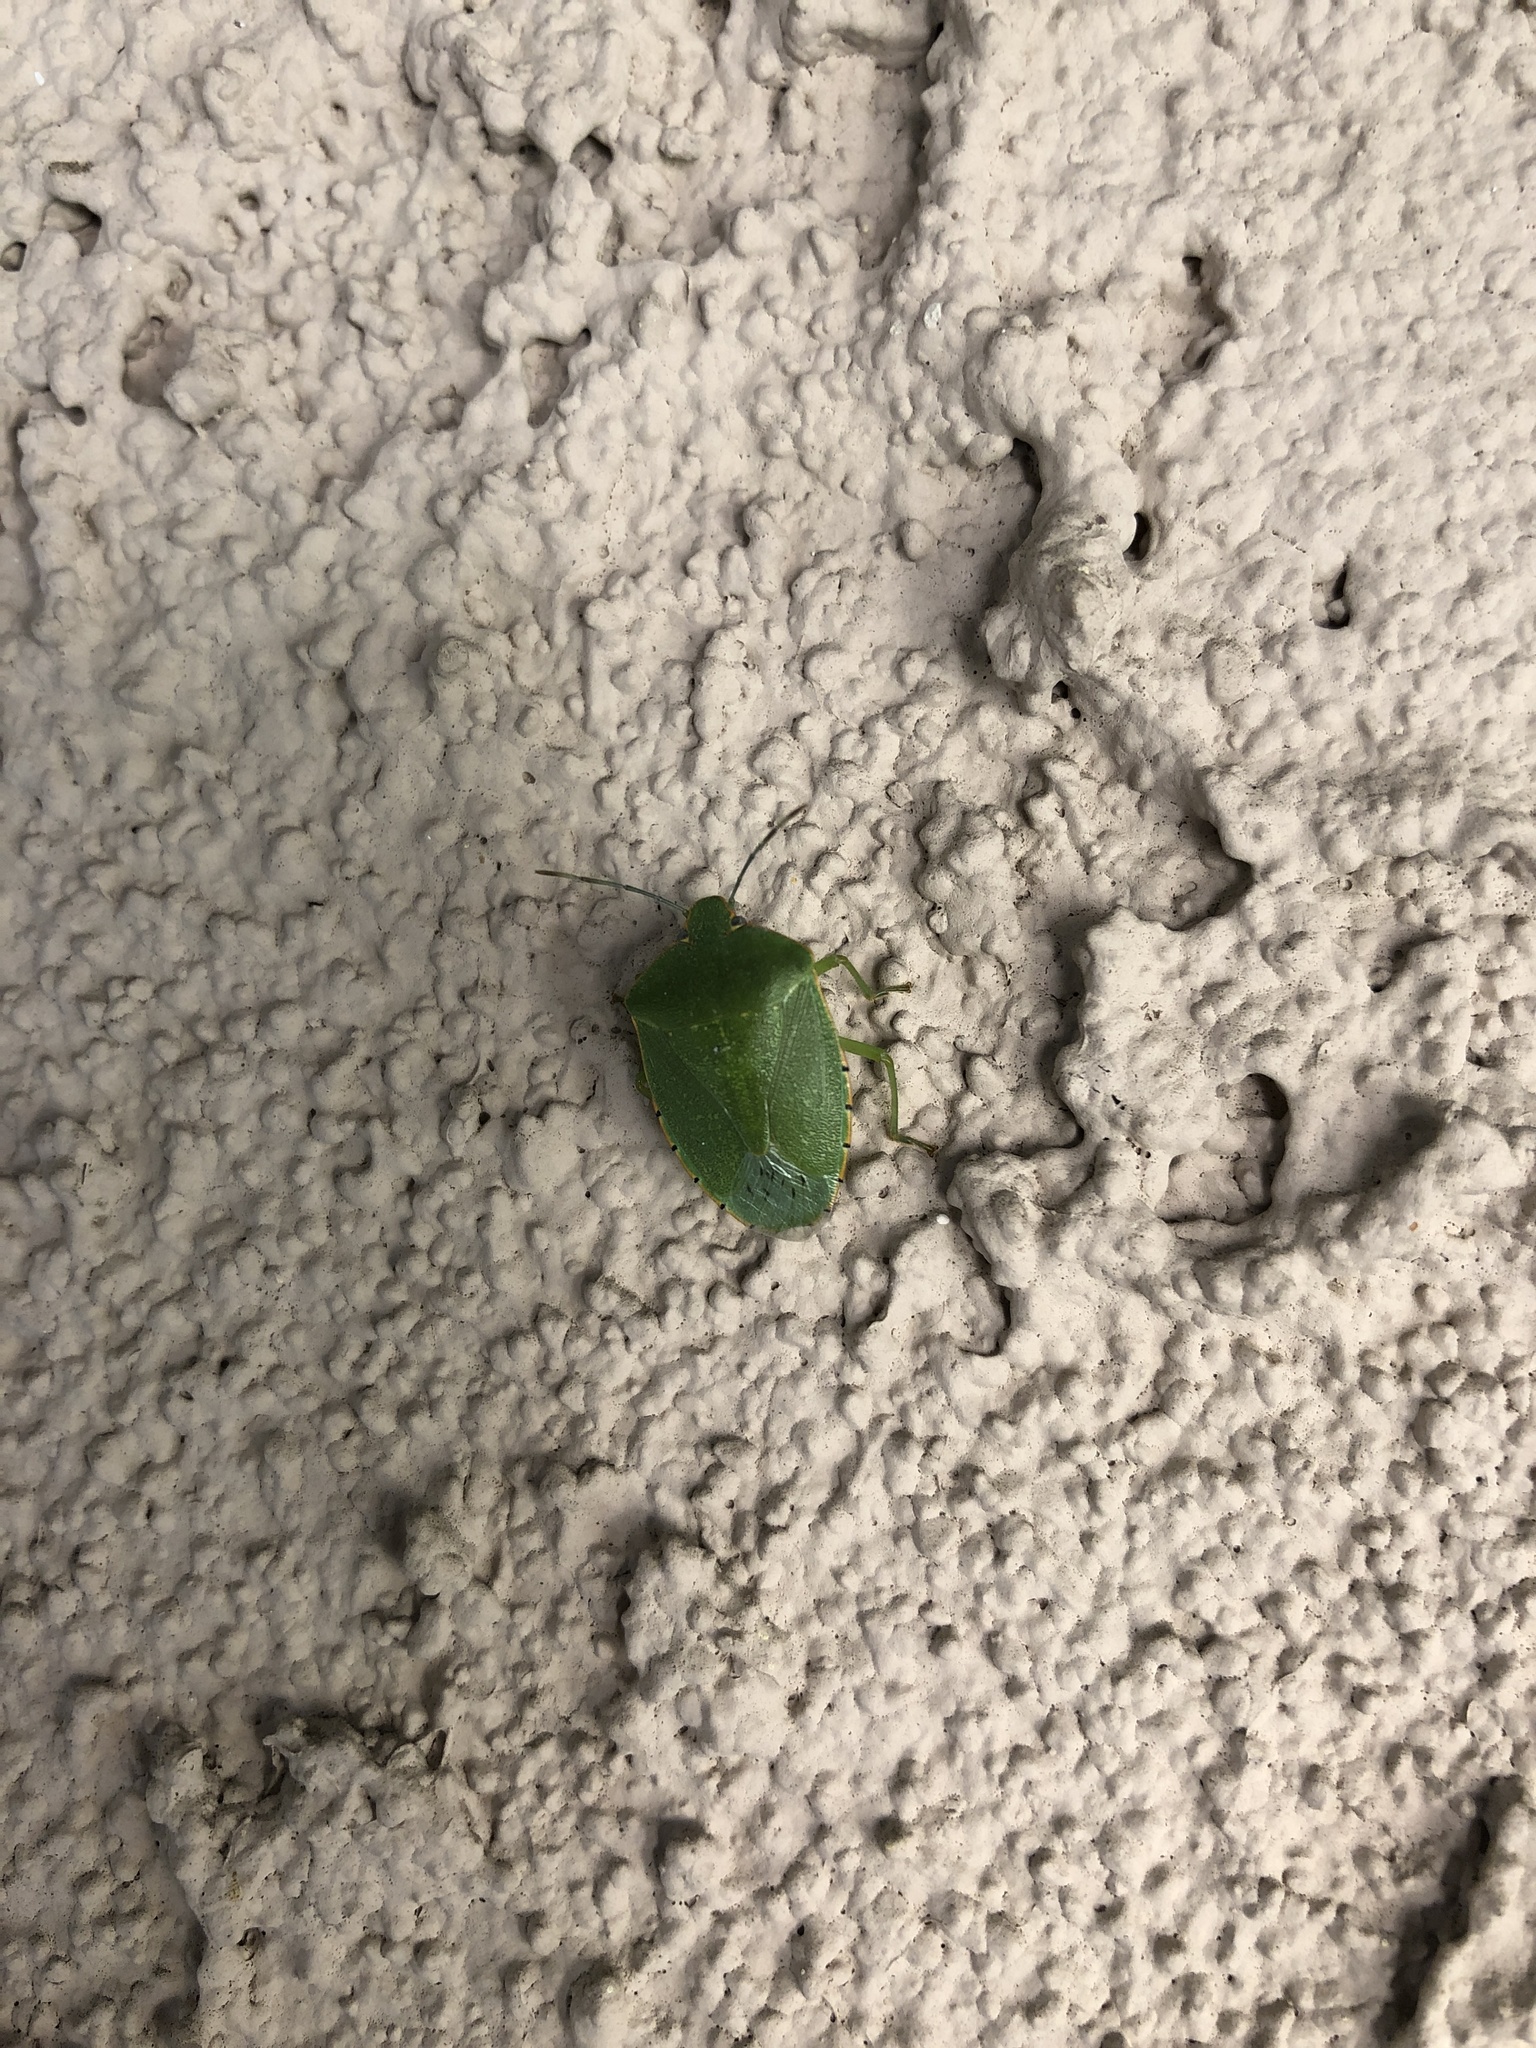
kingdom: Animalia
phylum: Arthropoda
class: Insecta
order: Hemiptera
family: Pentatomidae
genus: Chinavia
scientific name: Chinavia hilaris
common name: Green stink bug
